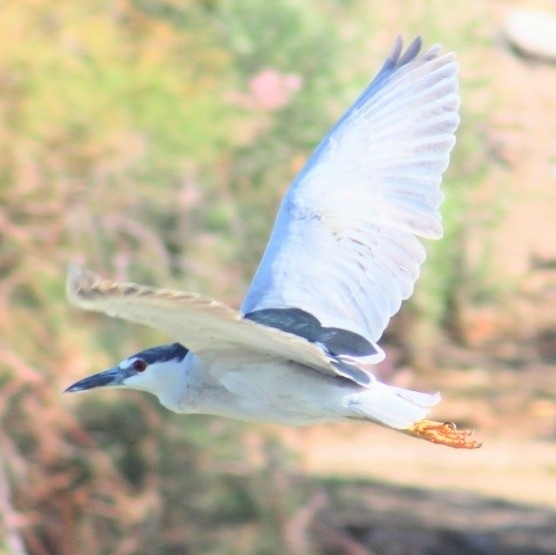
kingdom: Animalia
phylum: Chordata
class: Aves
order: Pelecaniformes
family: Ardeidae
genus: Nycticorax
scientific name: Nycticorax nycticorax
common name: Black-crowned night heron
